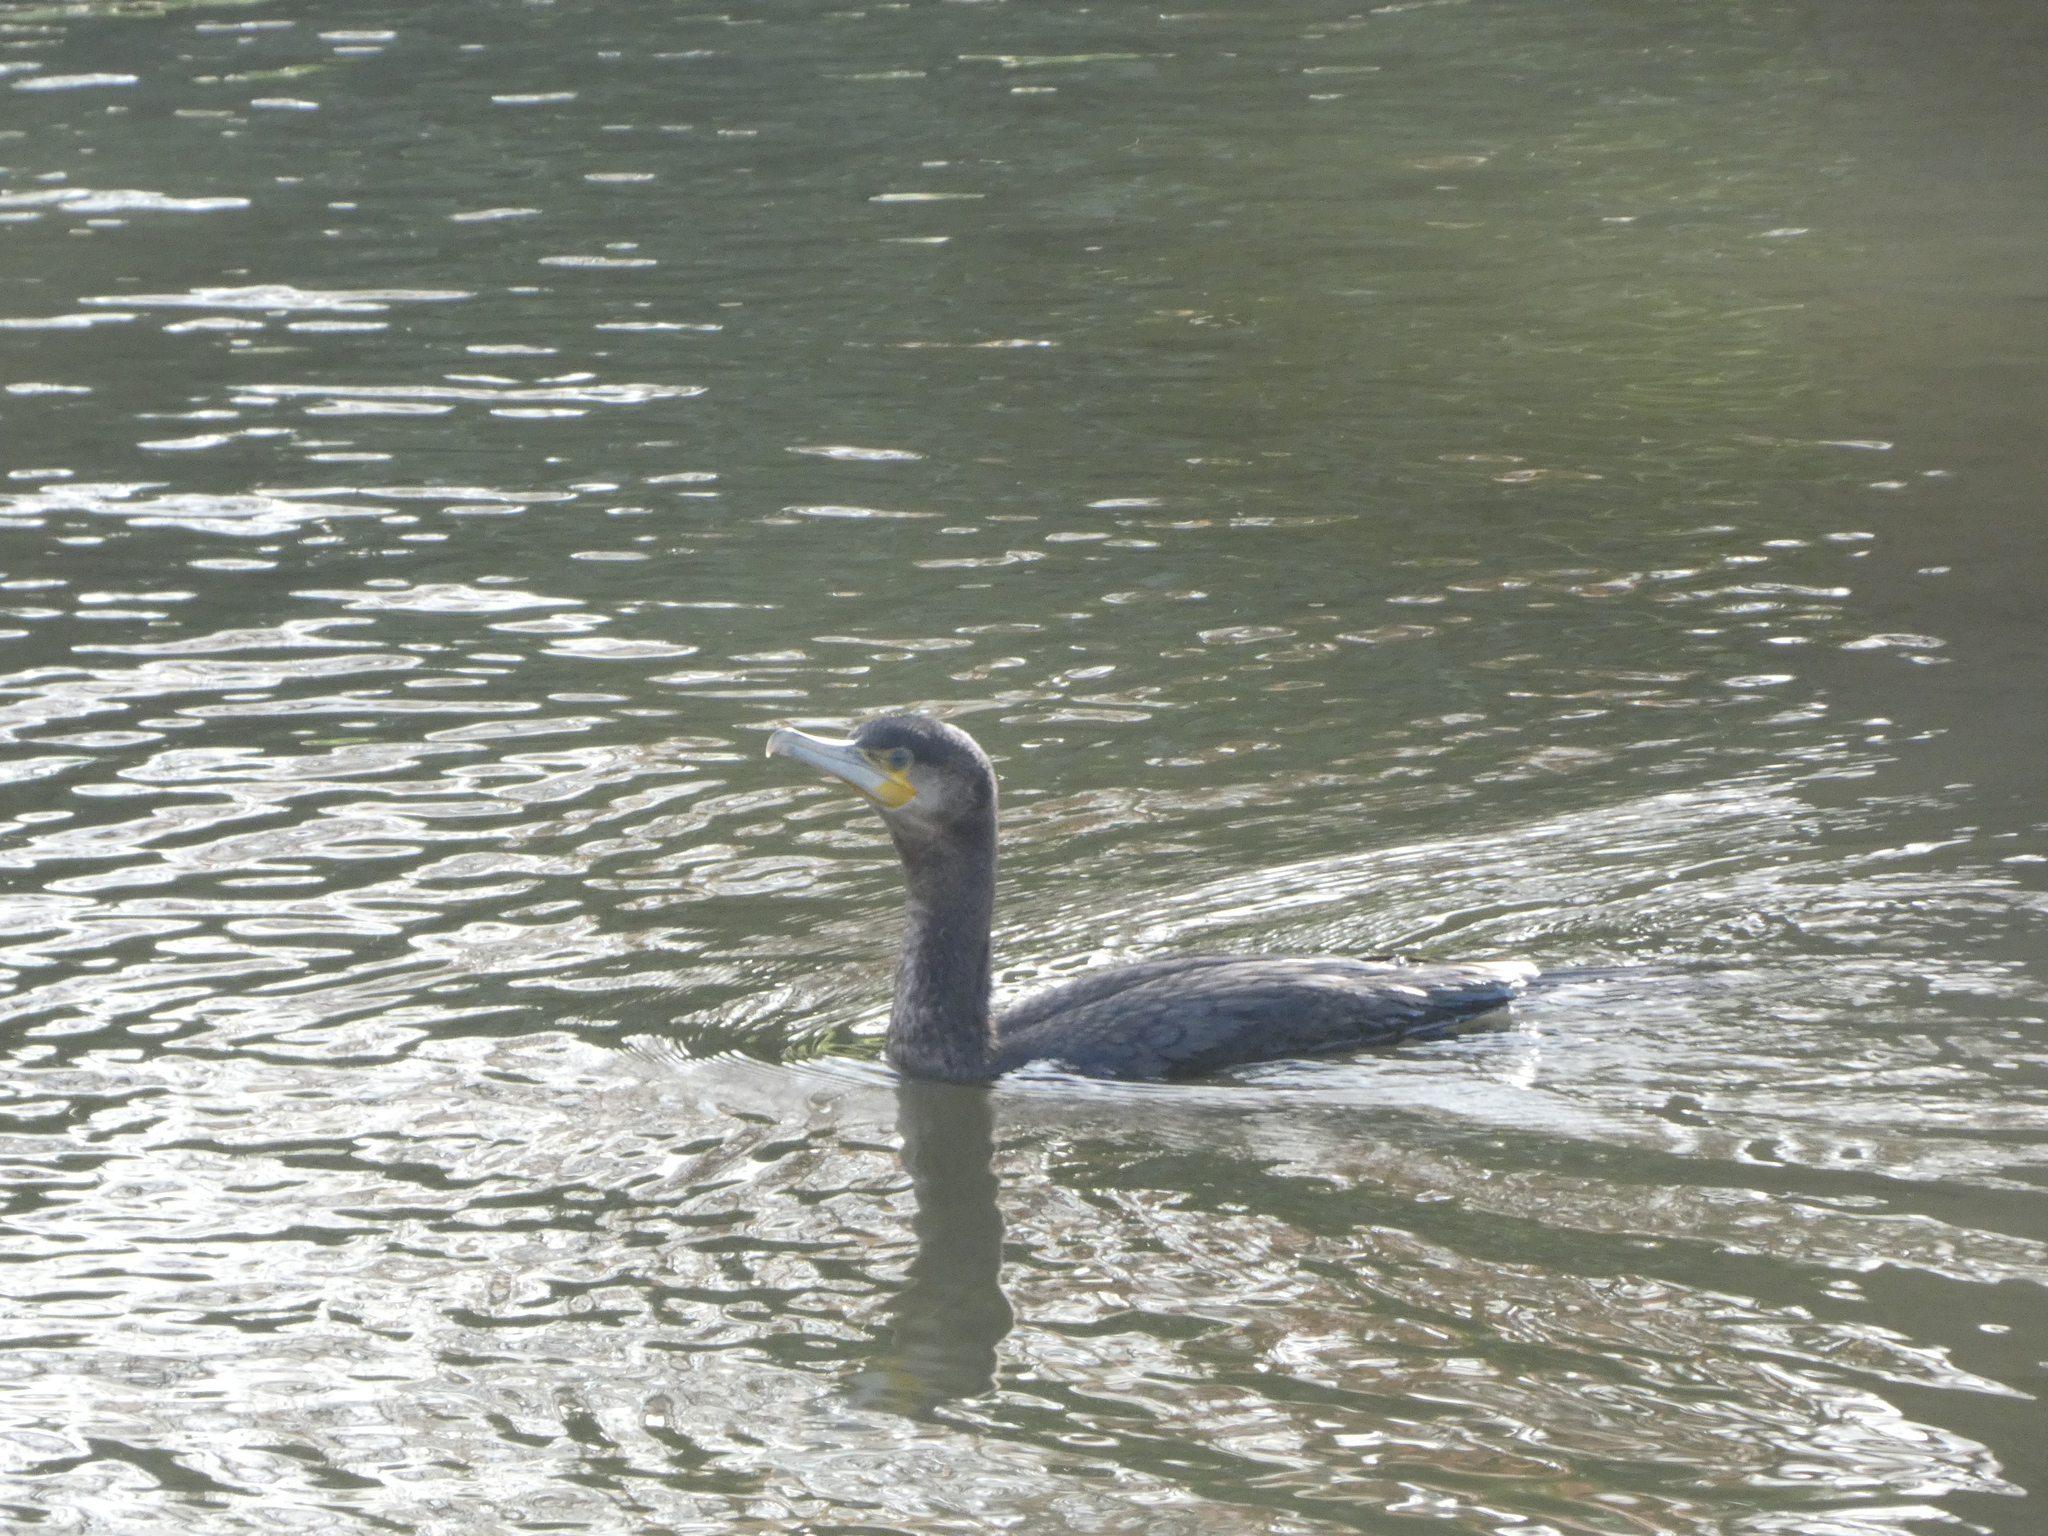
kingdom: Animalia
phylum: Chordata
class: Aves
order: Suliformes
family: Phalacrocoracidae
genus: Phalacrocorax
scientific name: Phalacrocorax carbo
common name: Great cormorant
